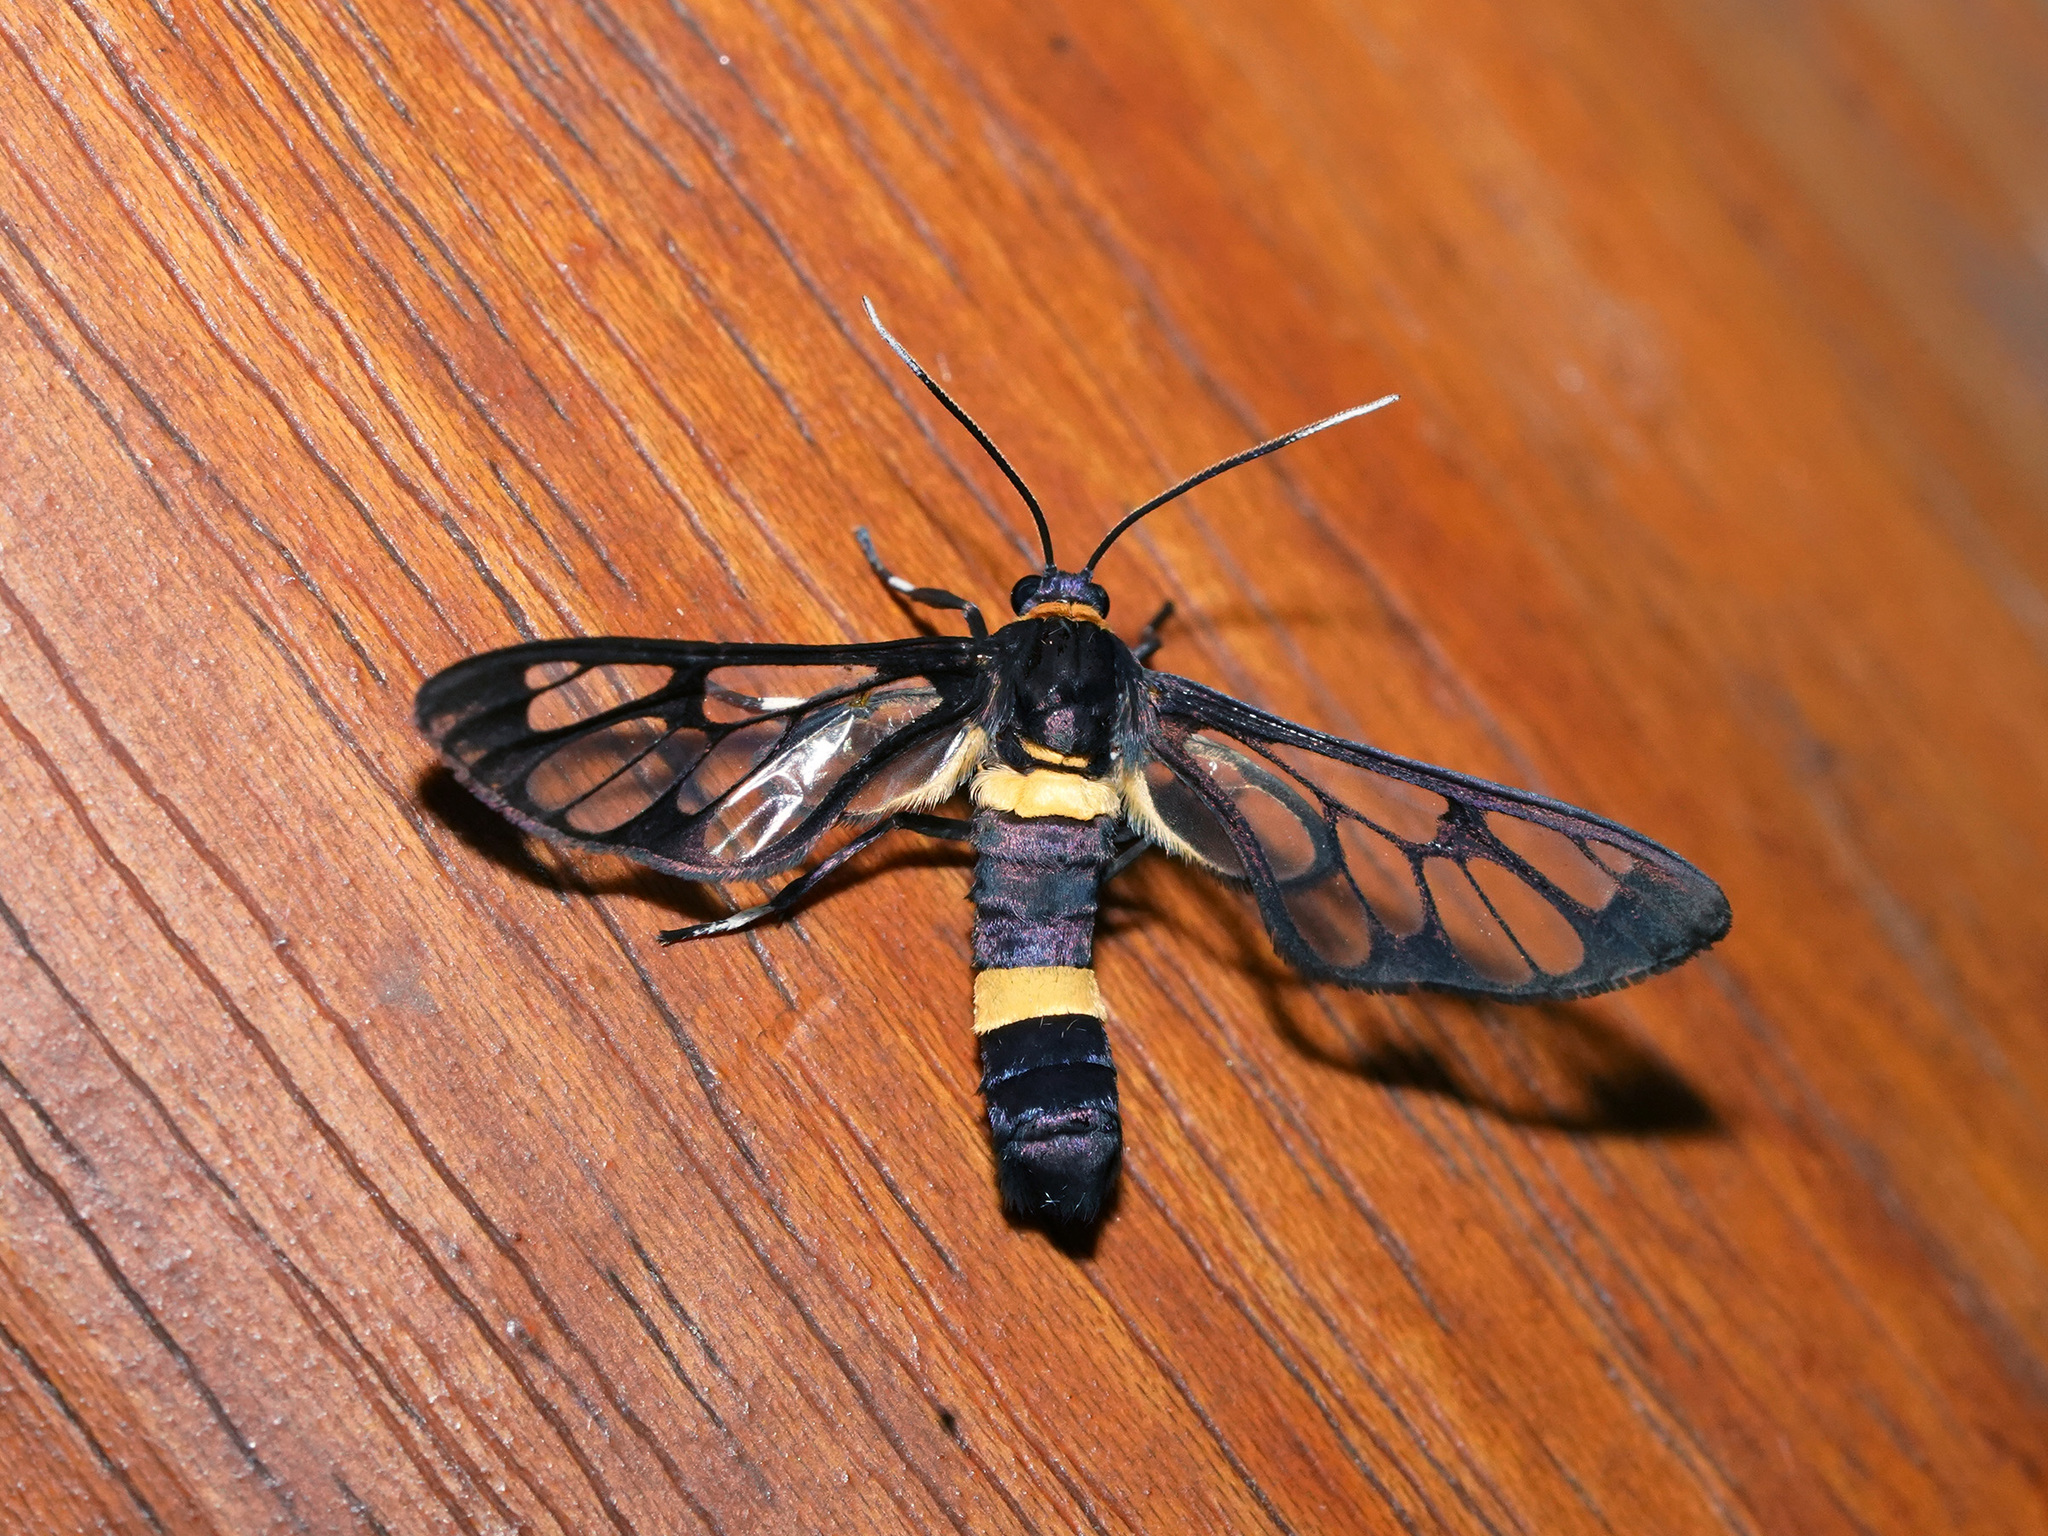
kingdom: Animalia
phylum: Arthropoda
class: Insecta
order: Lepidoptera
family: Erebidae
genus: Syntomoides
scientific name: Syntomoides imaon
